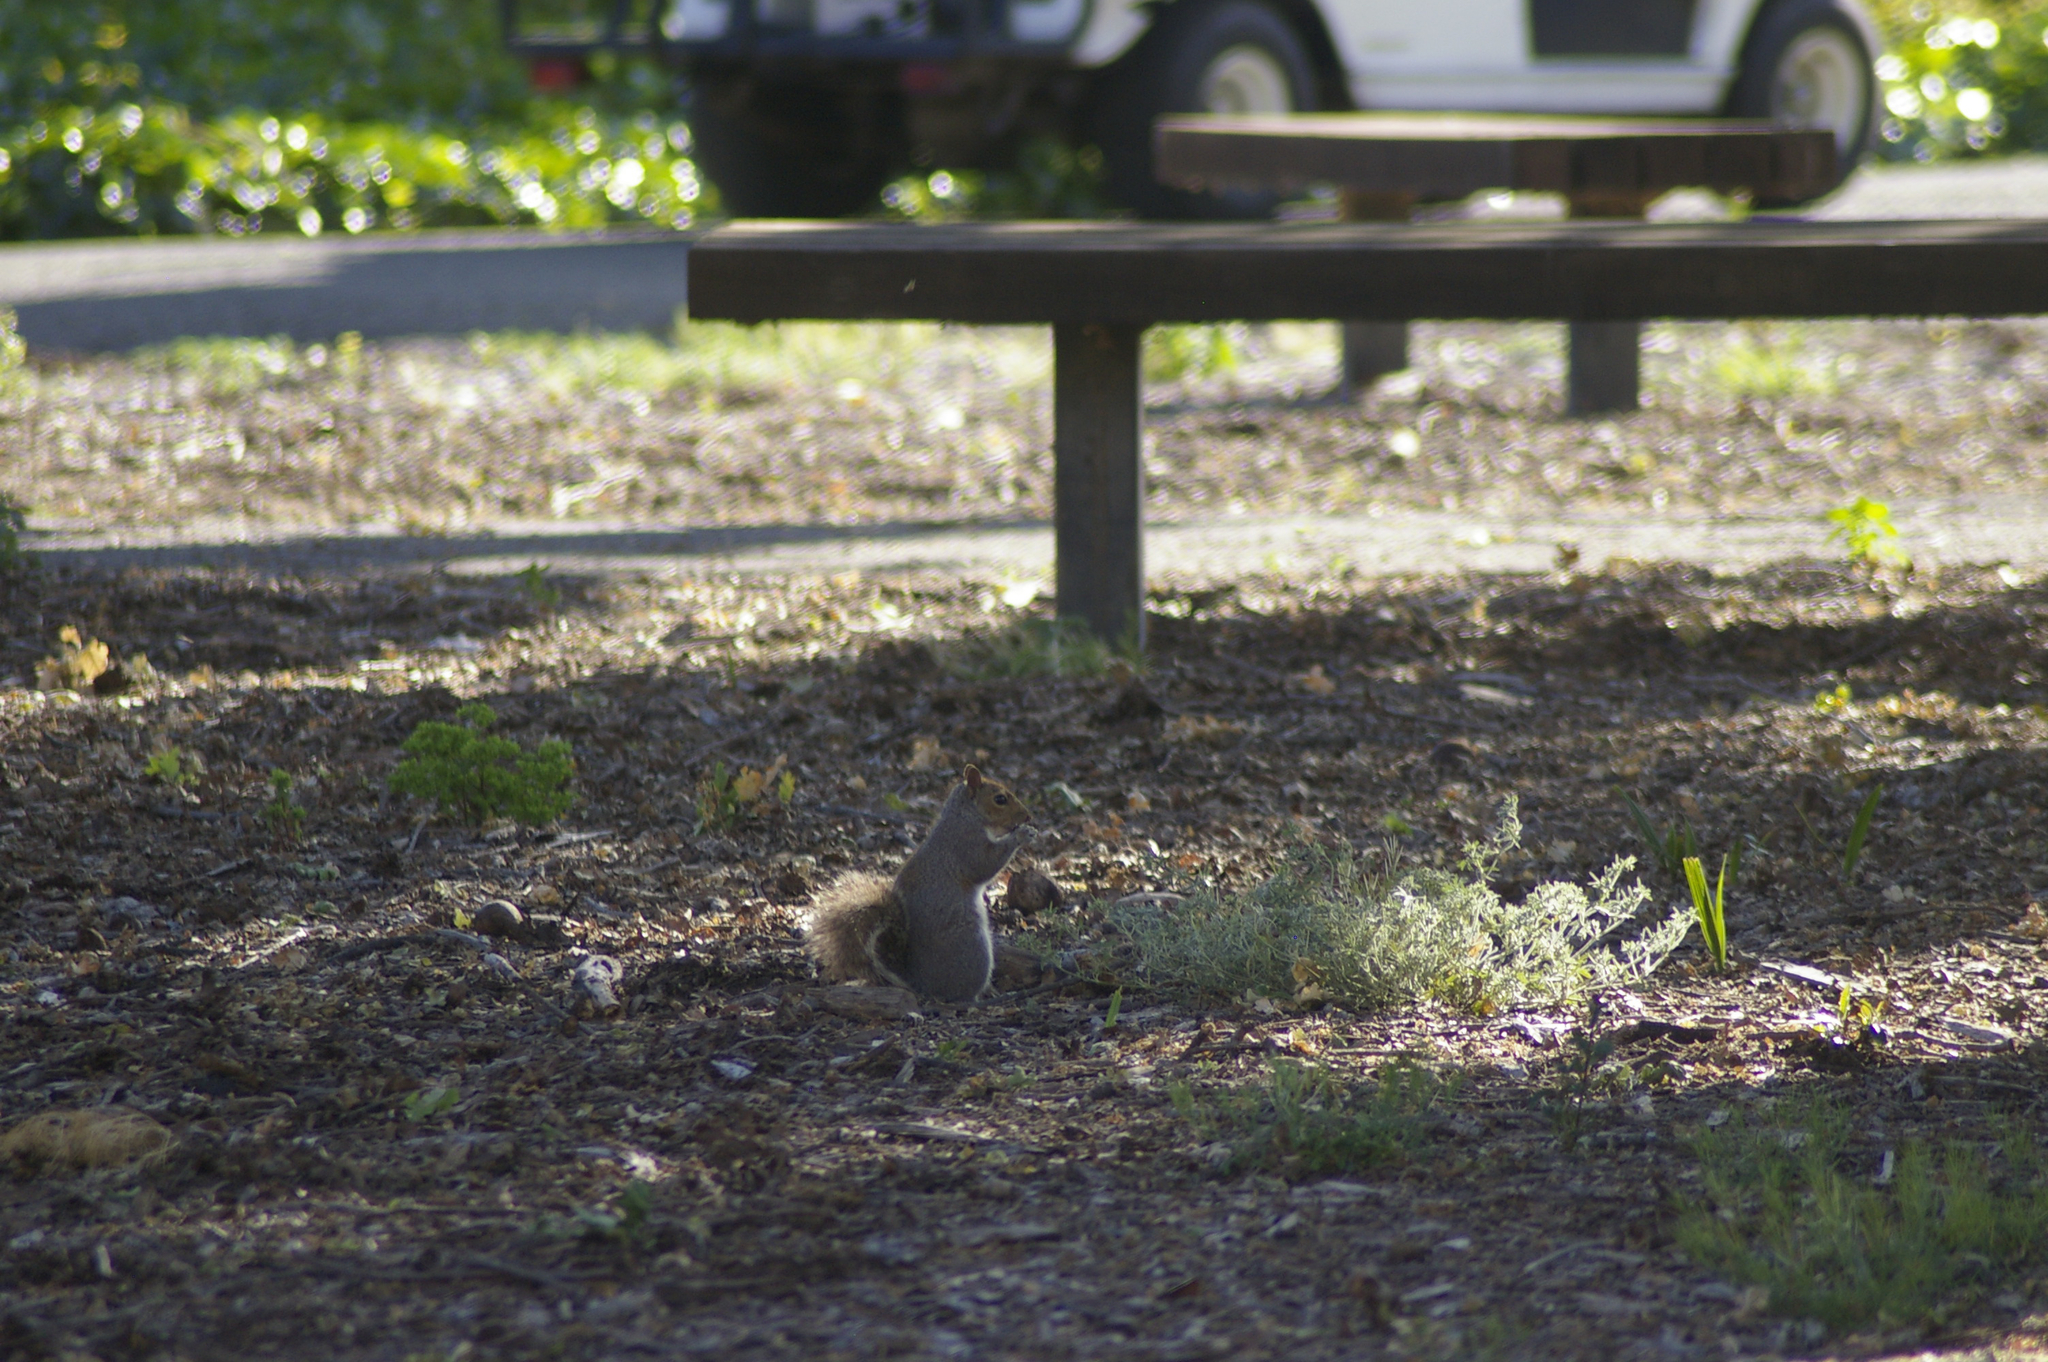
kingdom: Animalia
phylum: Chordata
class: Mammalia
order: Rodentia
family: Sciuridae
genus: Sciurus
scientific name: Sciurus carolinensis
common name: Eastern gray squirrel
